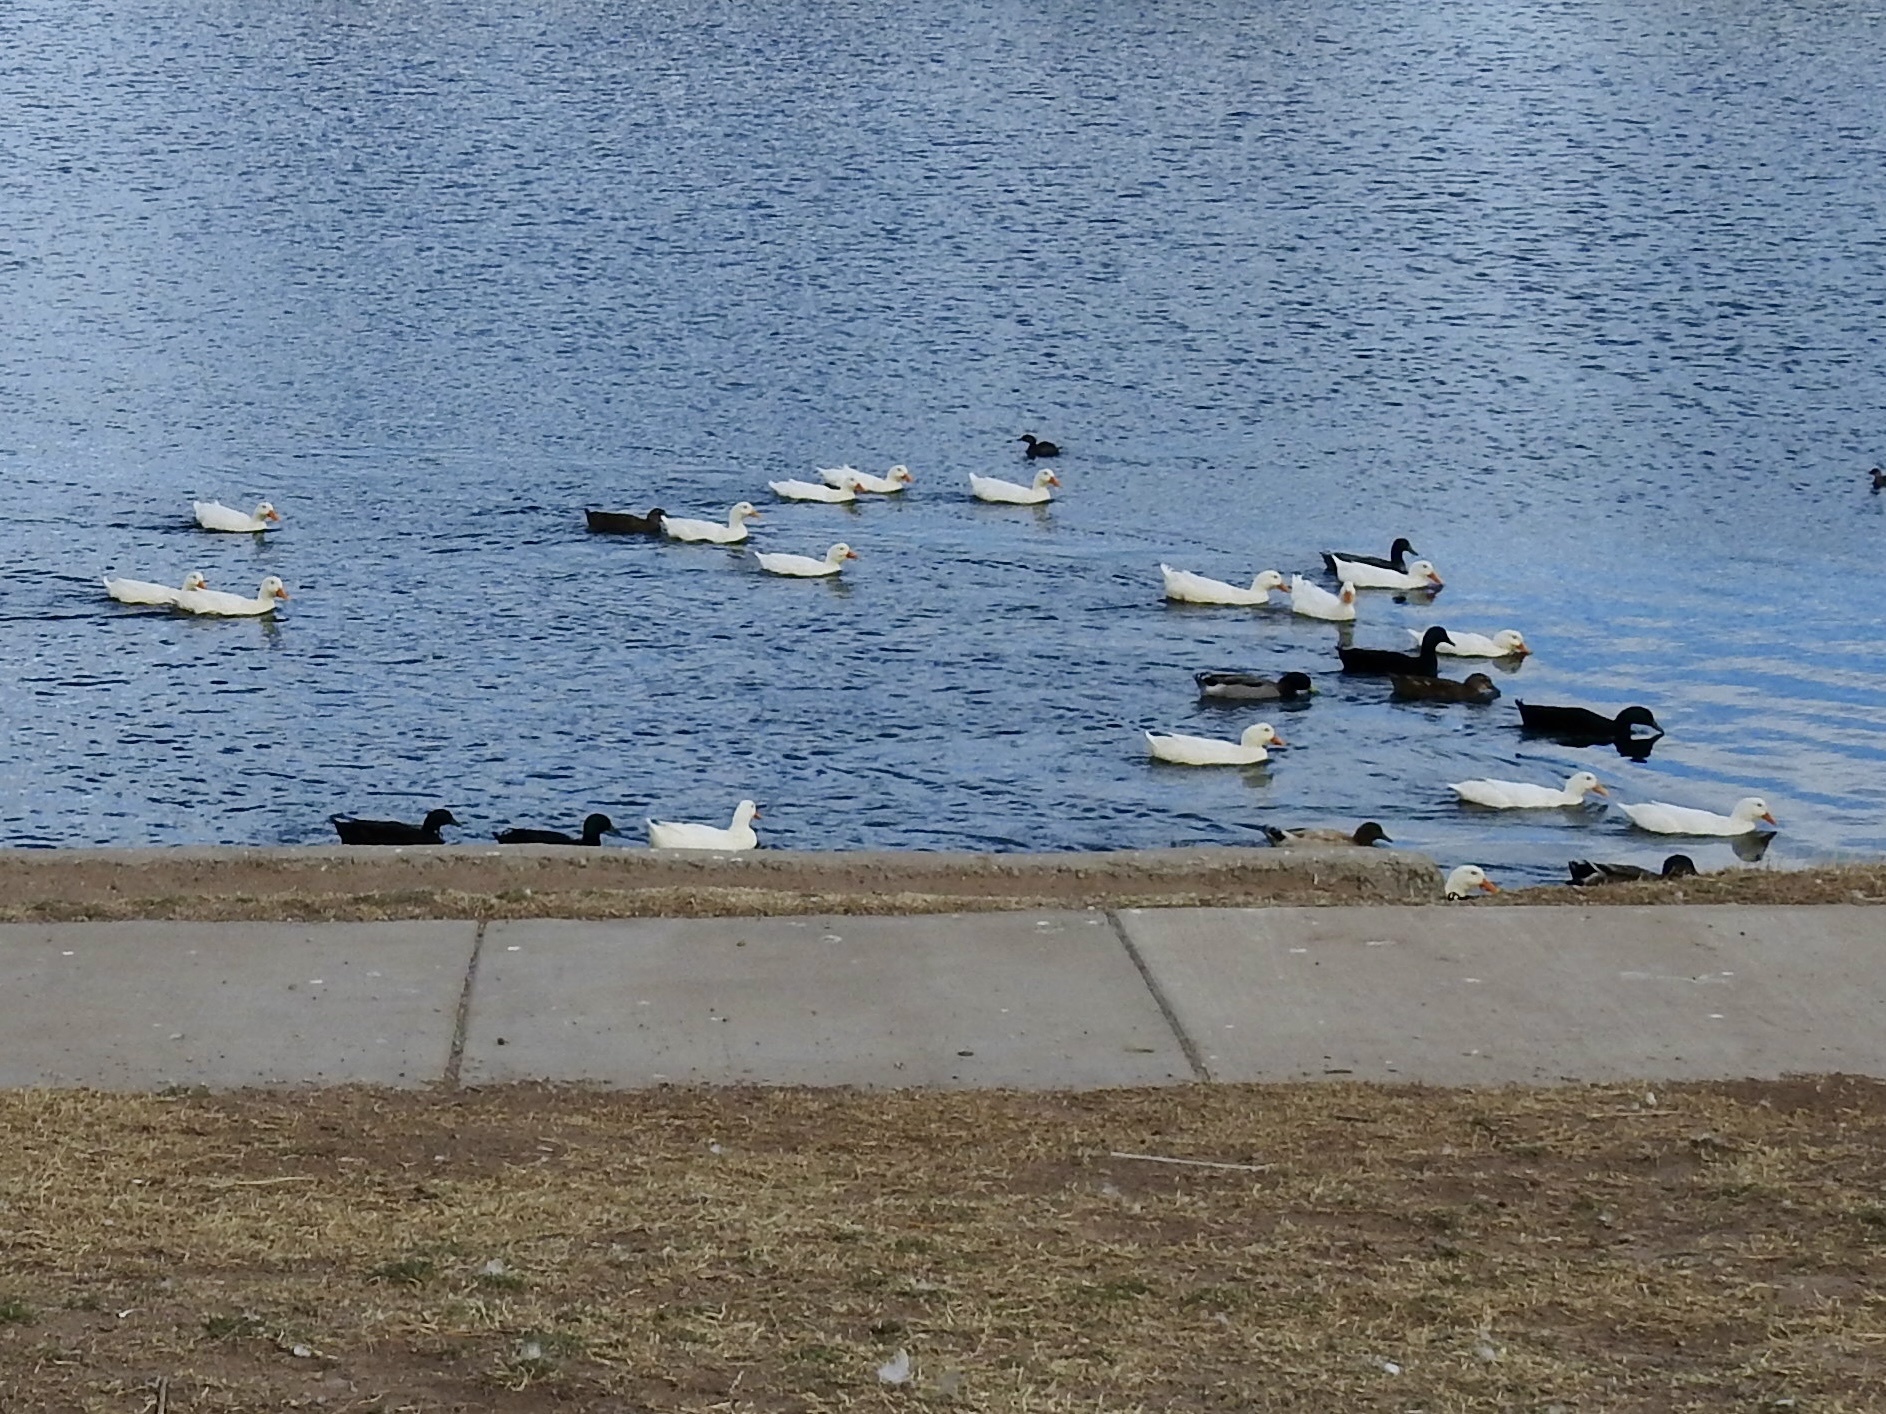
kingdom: Animalia
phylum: Chordata
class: Aves
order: Anseriformes
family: Anatidae
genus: Anas
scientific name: Anas platyrhynchos
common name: Mallard
